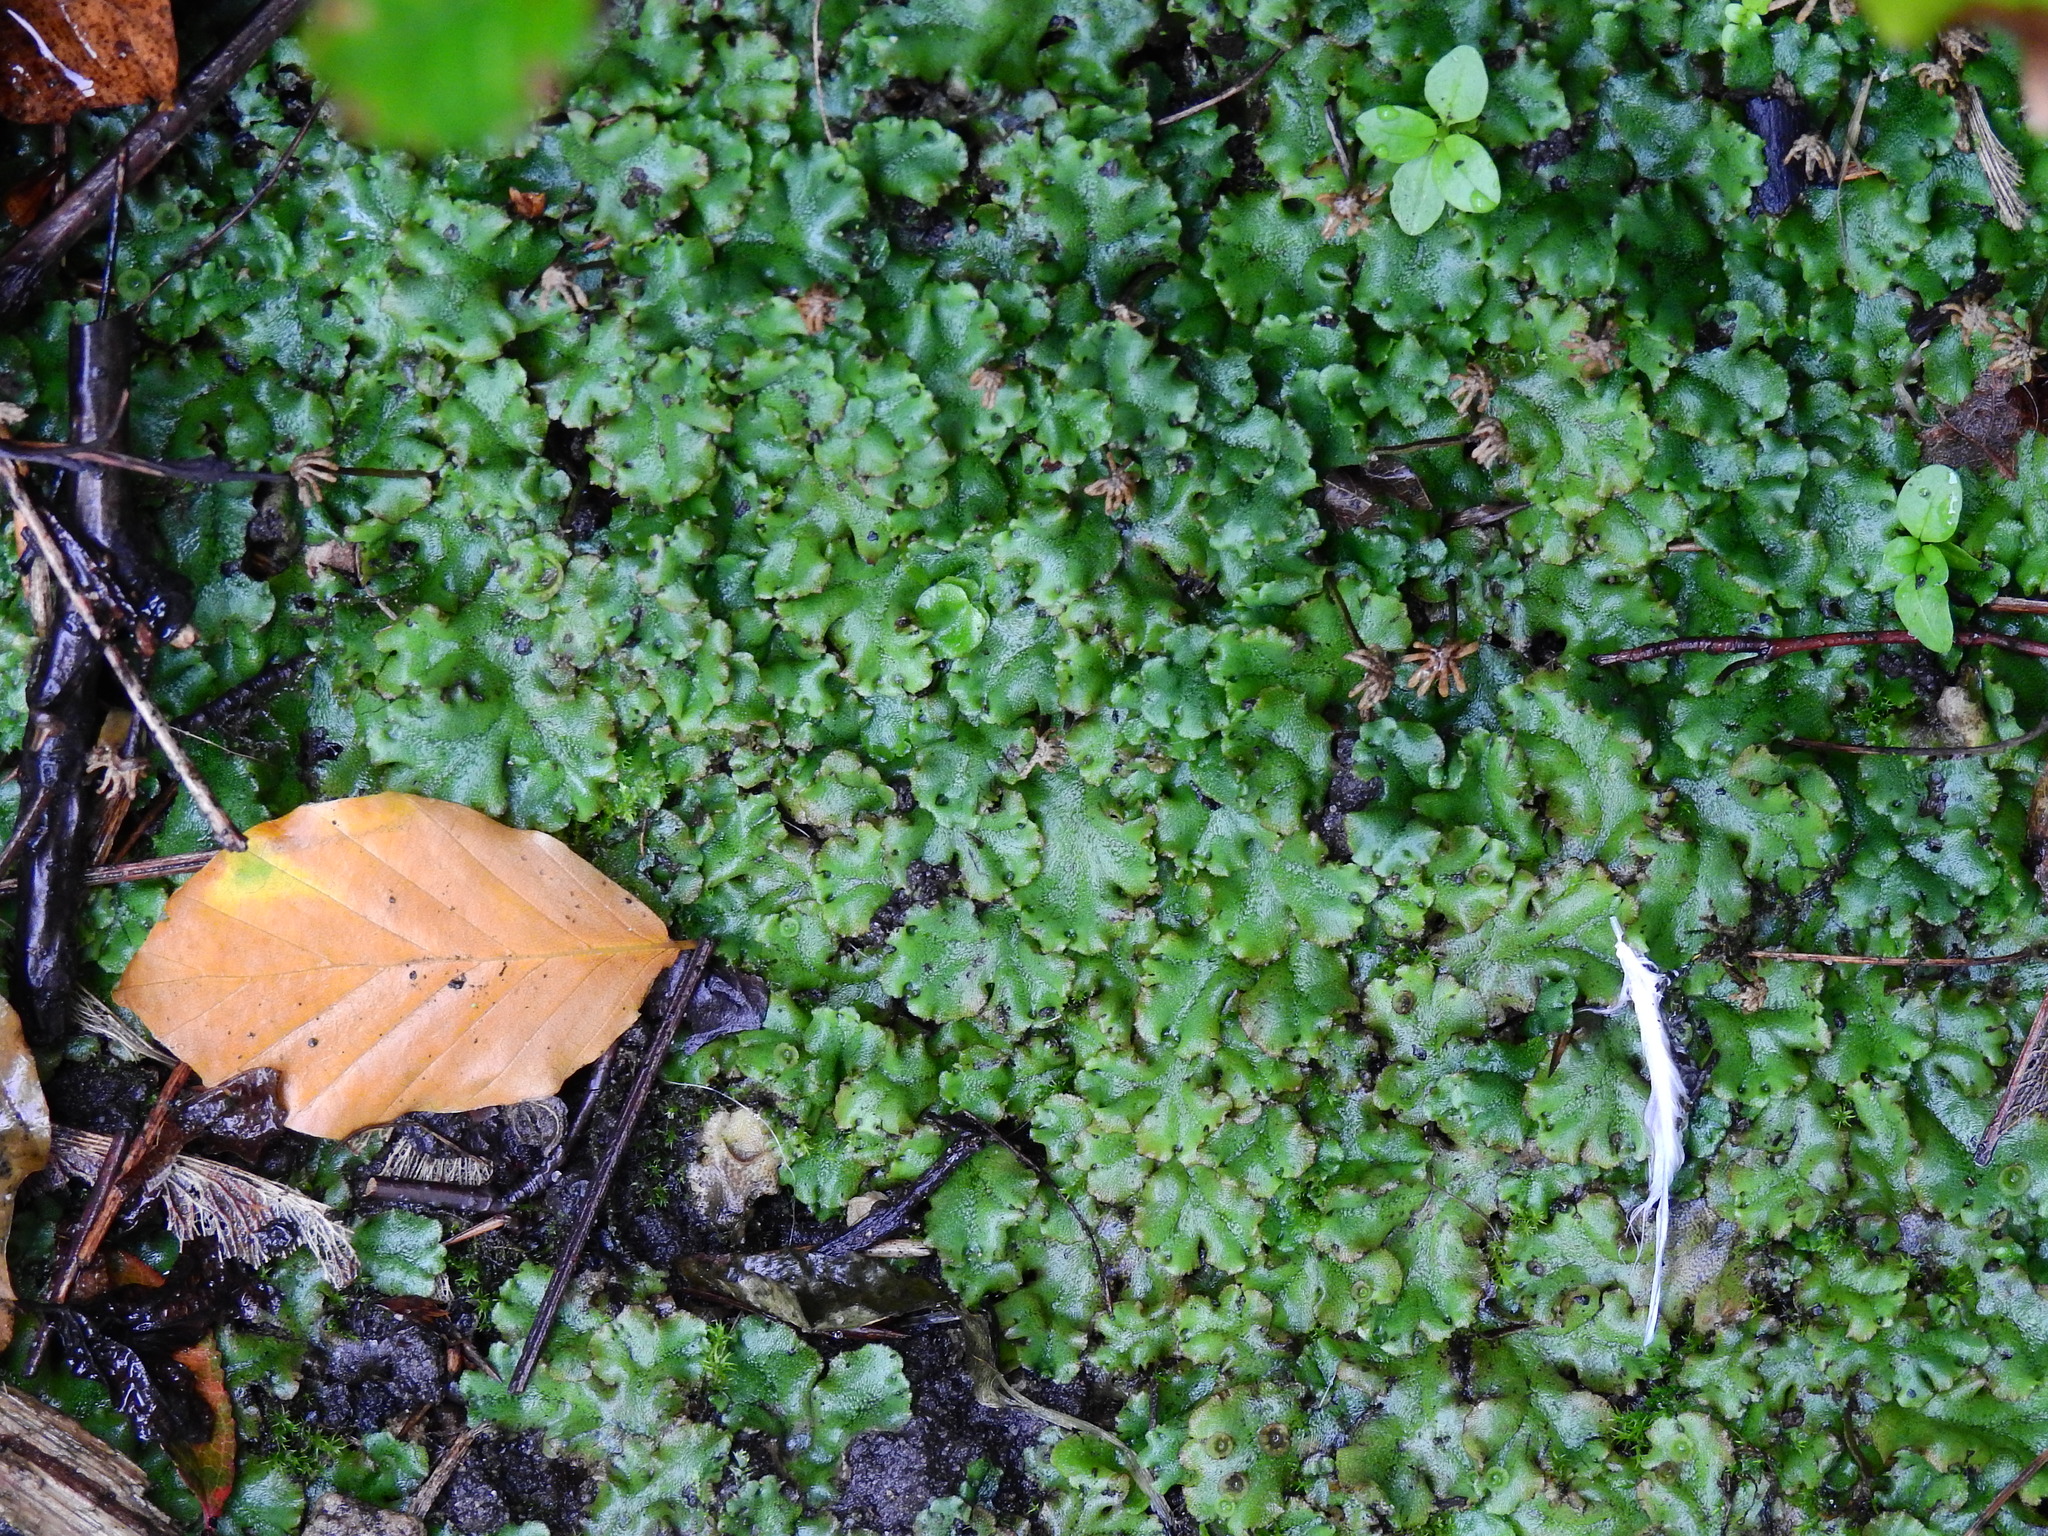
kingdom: Plantae
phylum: Marchantiophyta
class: Marchantiopsida
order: Marchantiales
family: Marchantiaceae
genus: Marchantia
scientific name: Marchantia polymorpha
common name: Common liverwort
